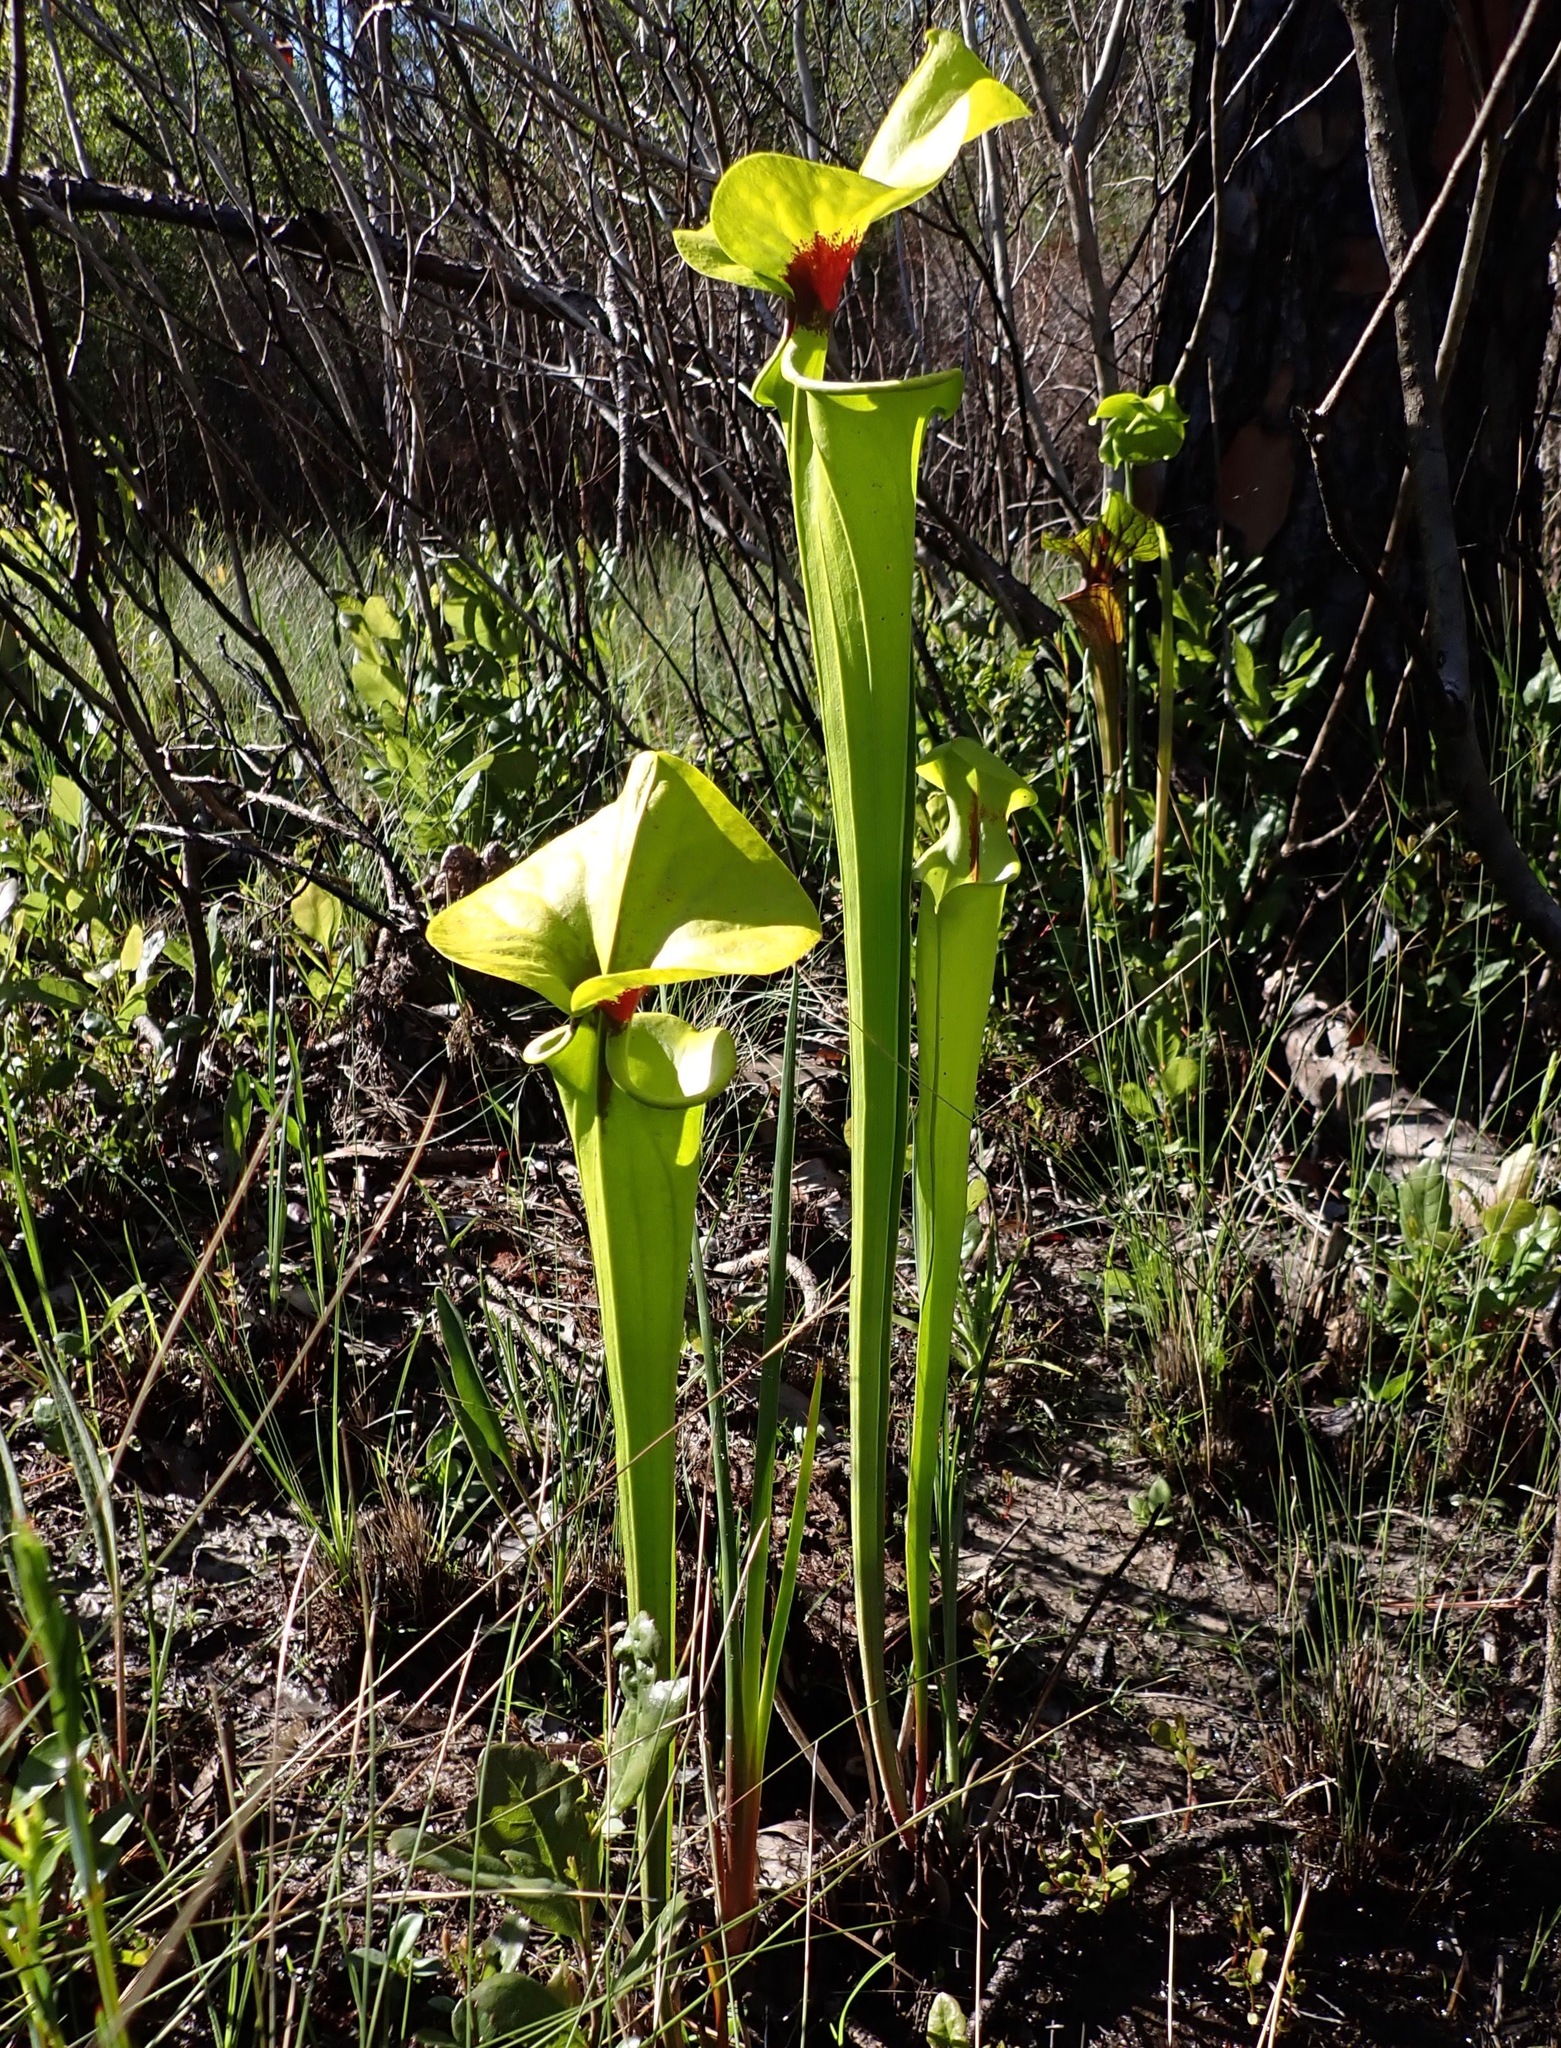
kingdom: Animalia
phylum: Arthropoda
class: Insecta
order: Lepidoptera
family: Noctuidae
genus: Exyra
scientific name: Exyra semicrocea
